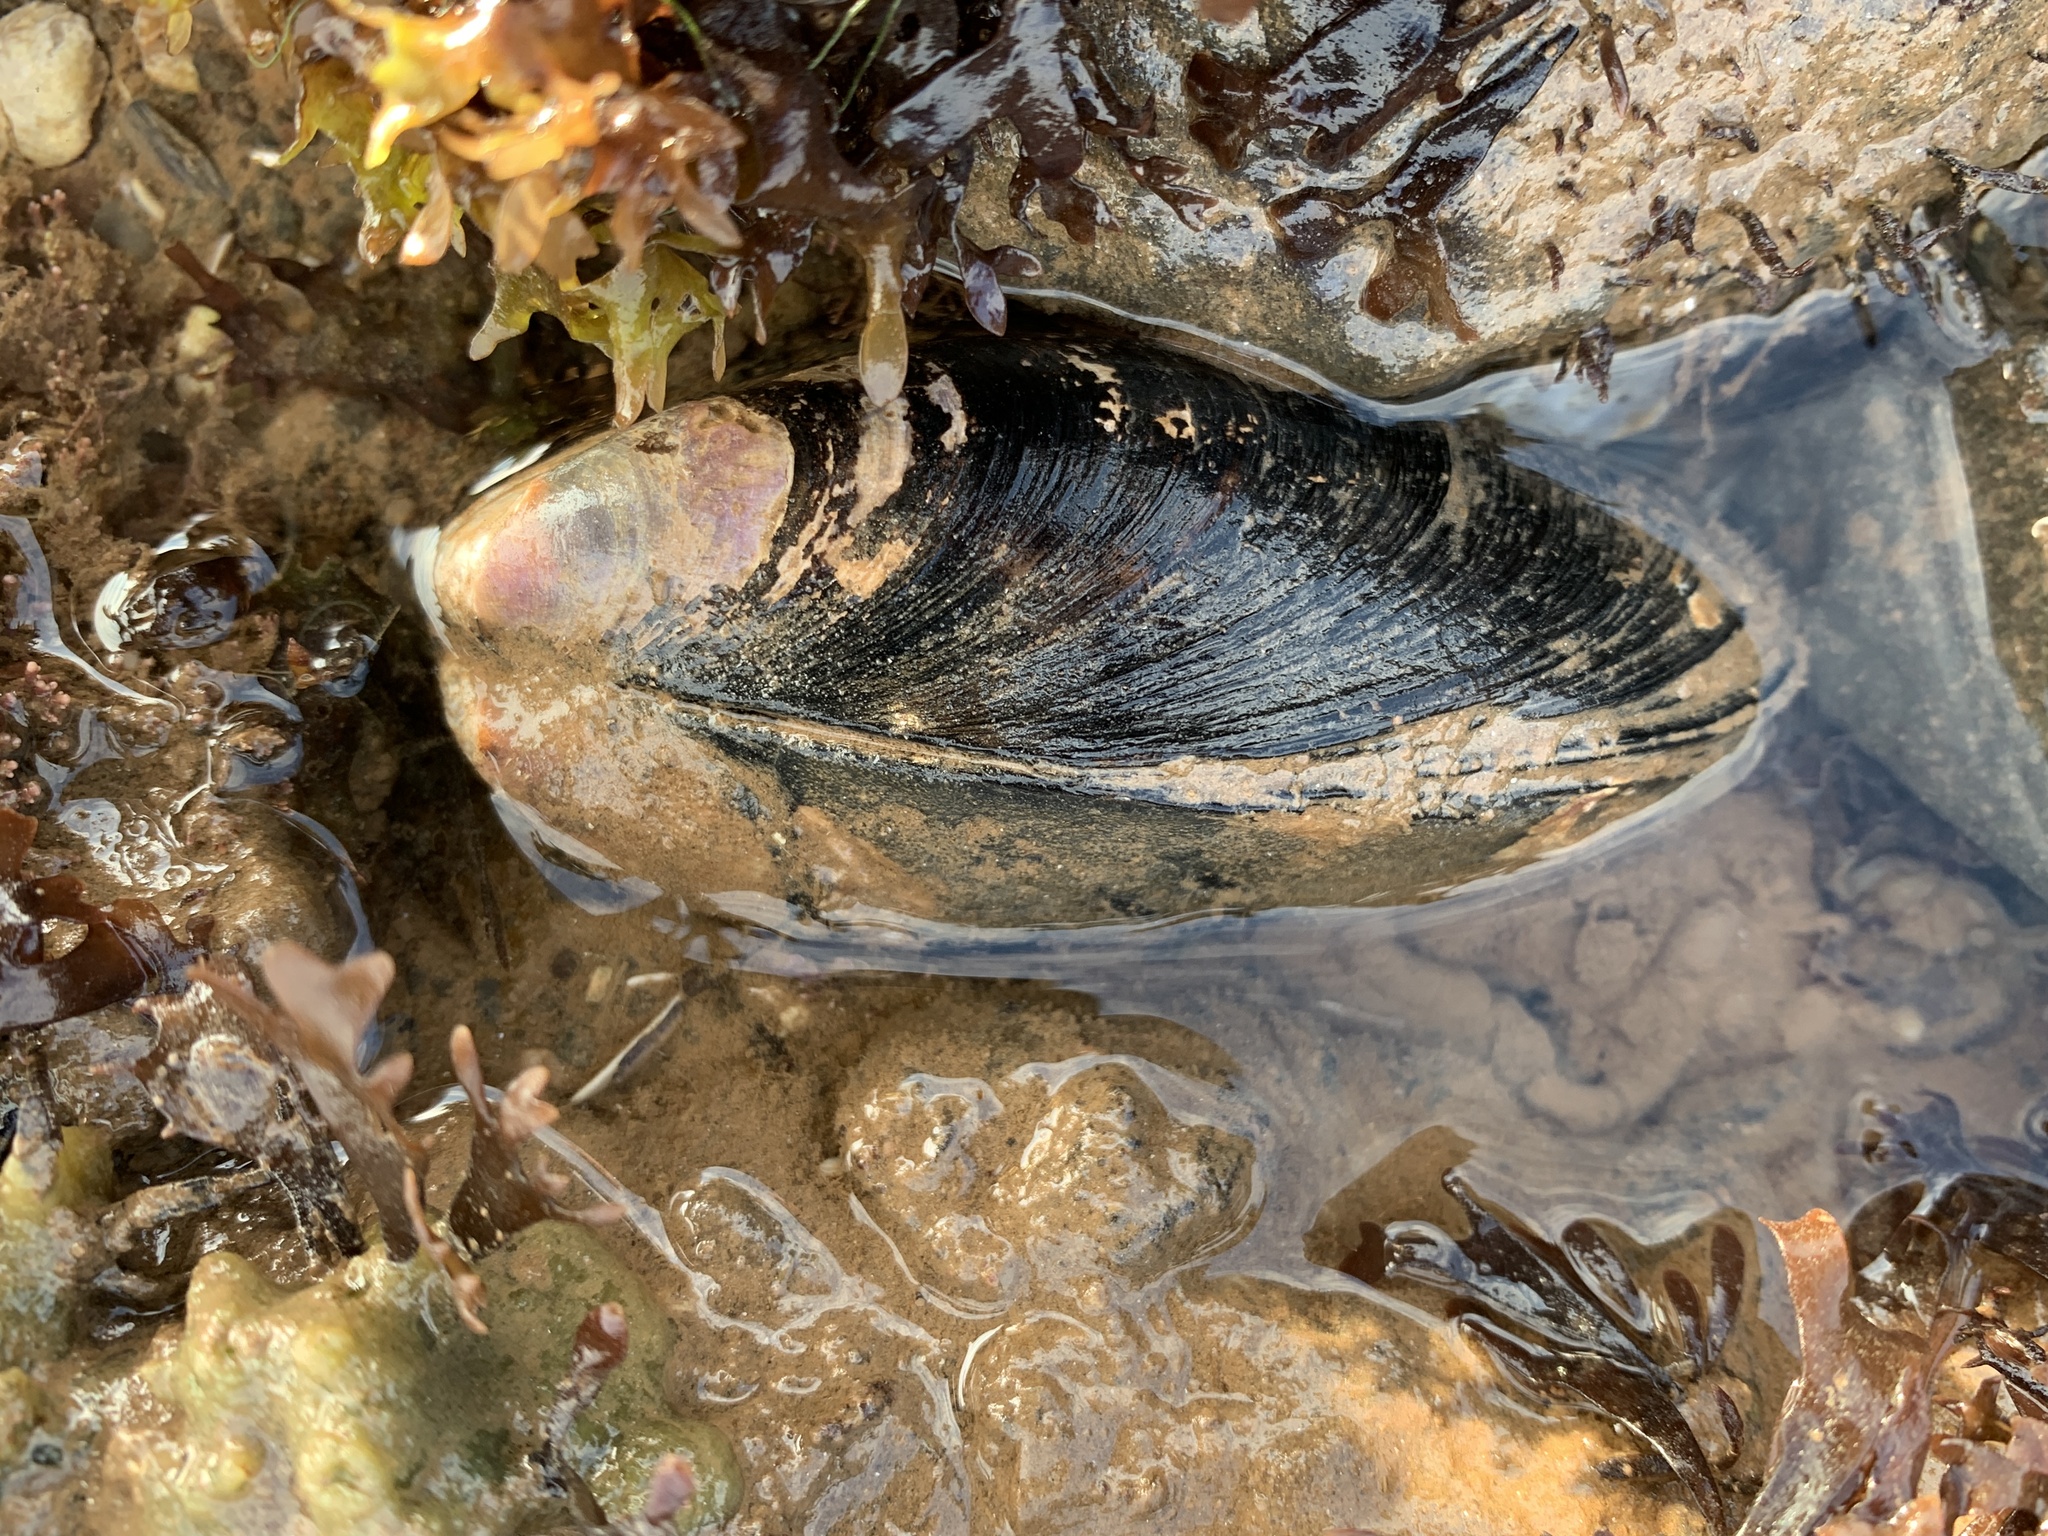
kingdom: Animalia
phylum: Mollusca
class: Bivalvia
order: Mytilida
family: Mytilidae
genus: Modiolus
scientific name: Modiolus modiolus
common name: Horse-mussel
